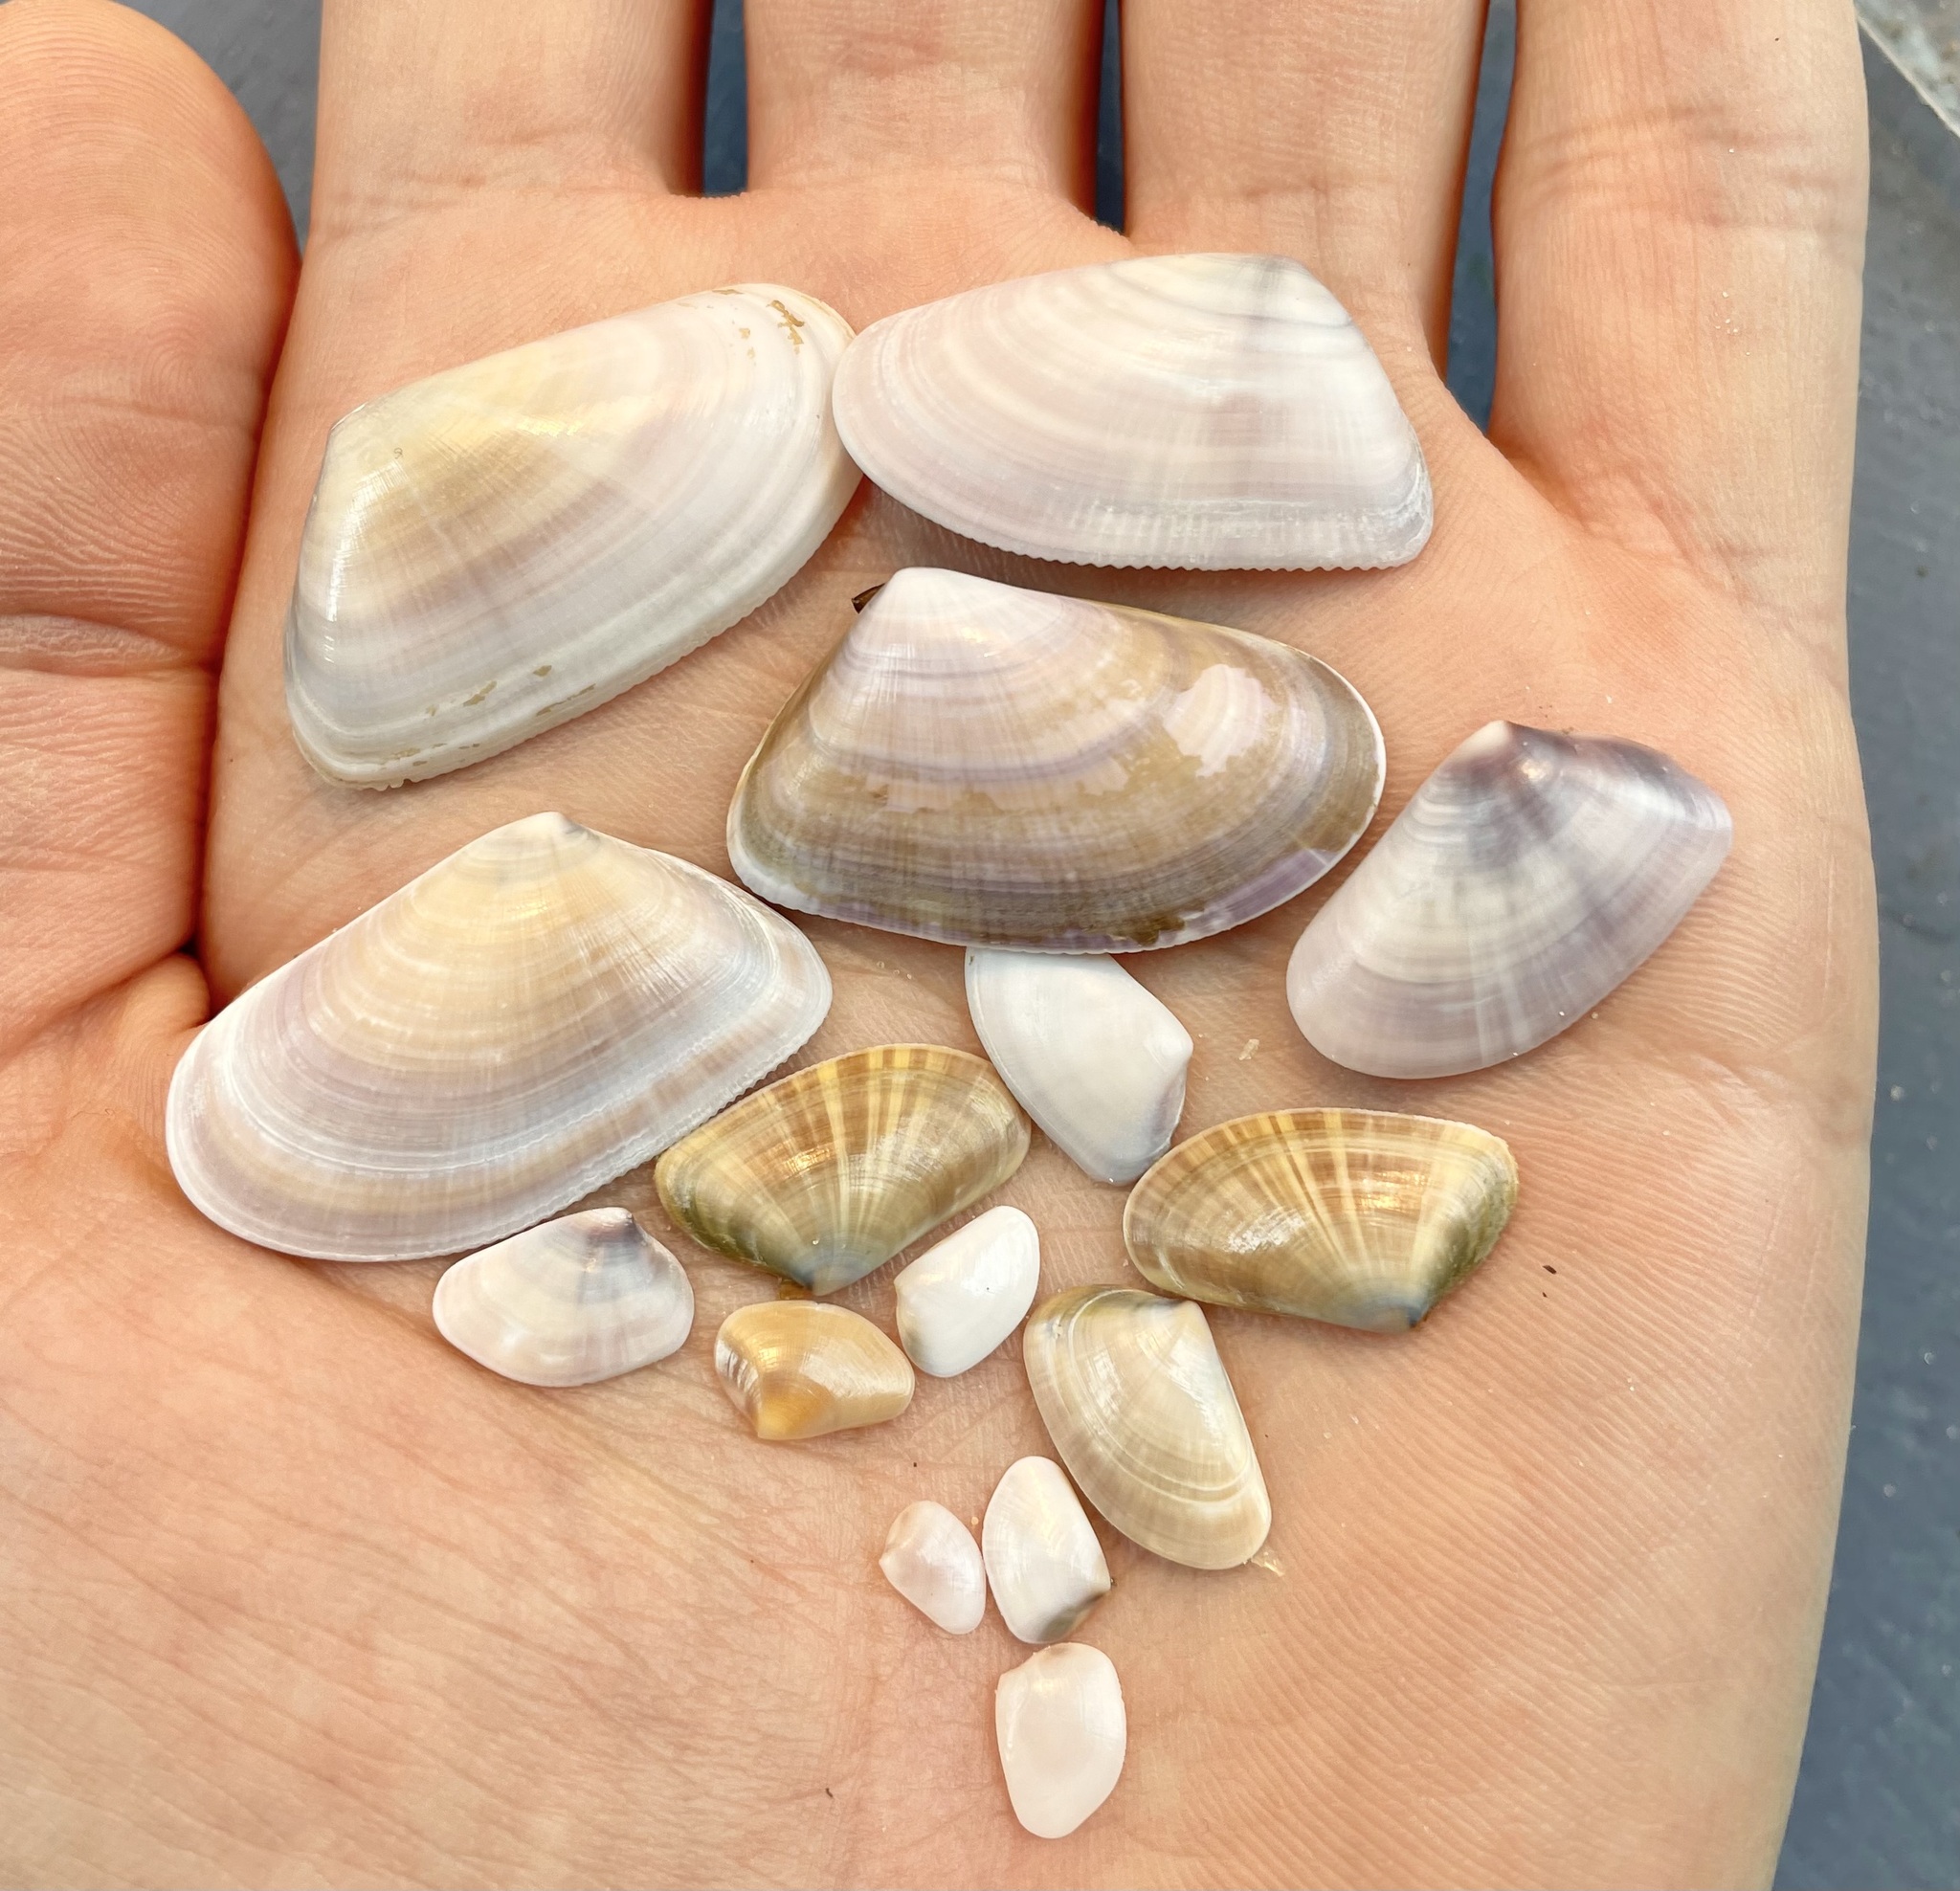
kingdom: Animalia
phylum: Mollusca
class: Bivalvia
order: Cardiida
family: Donacidae
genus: Donax
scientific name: Donax trunculus
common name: Truncate donax
